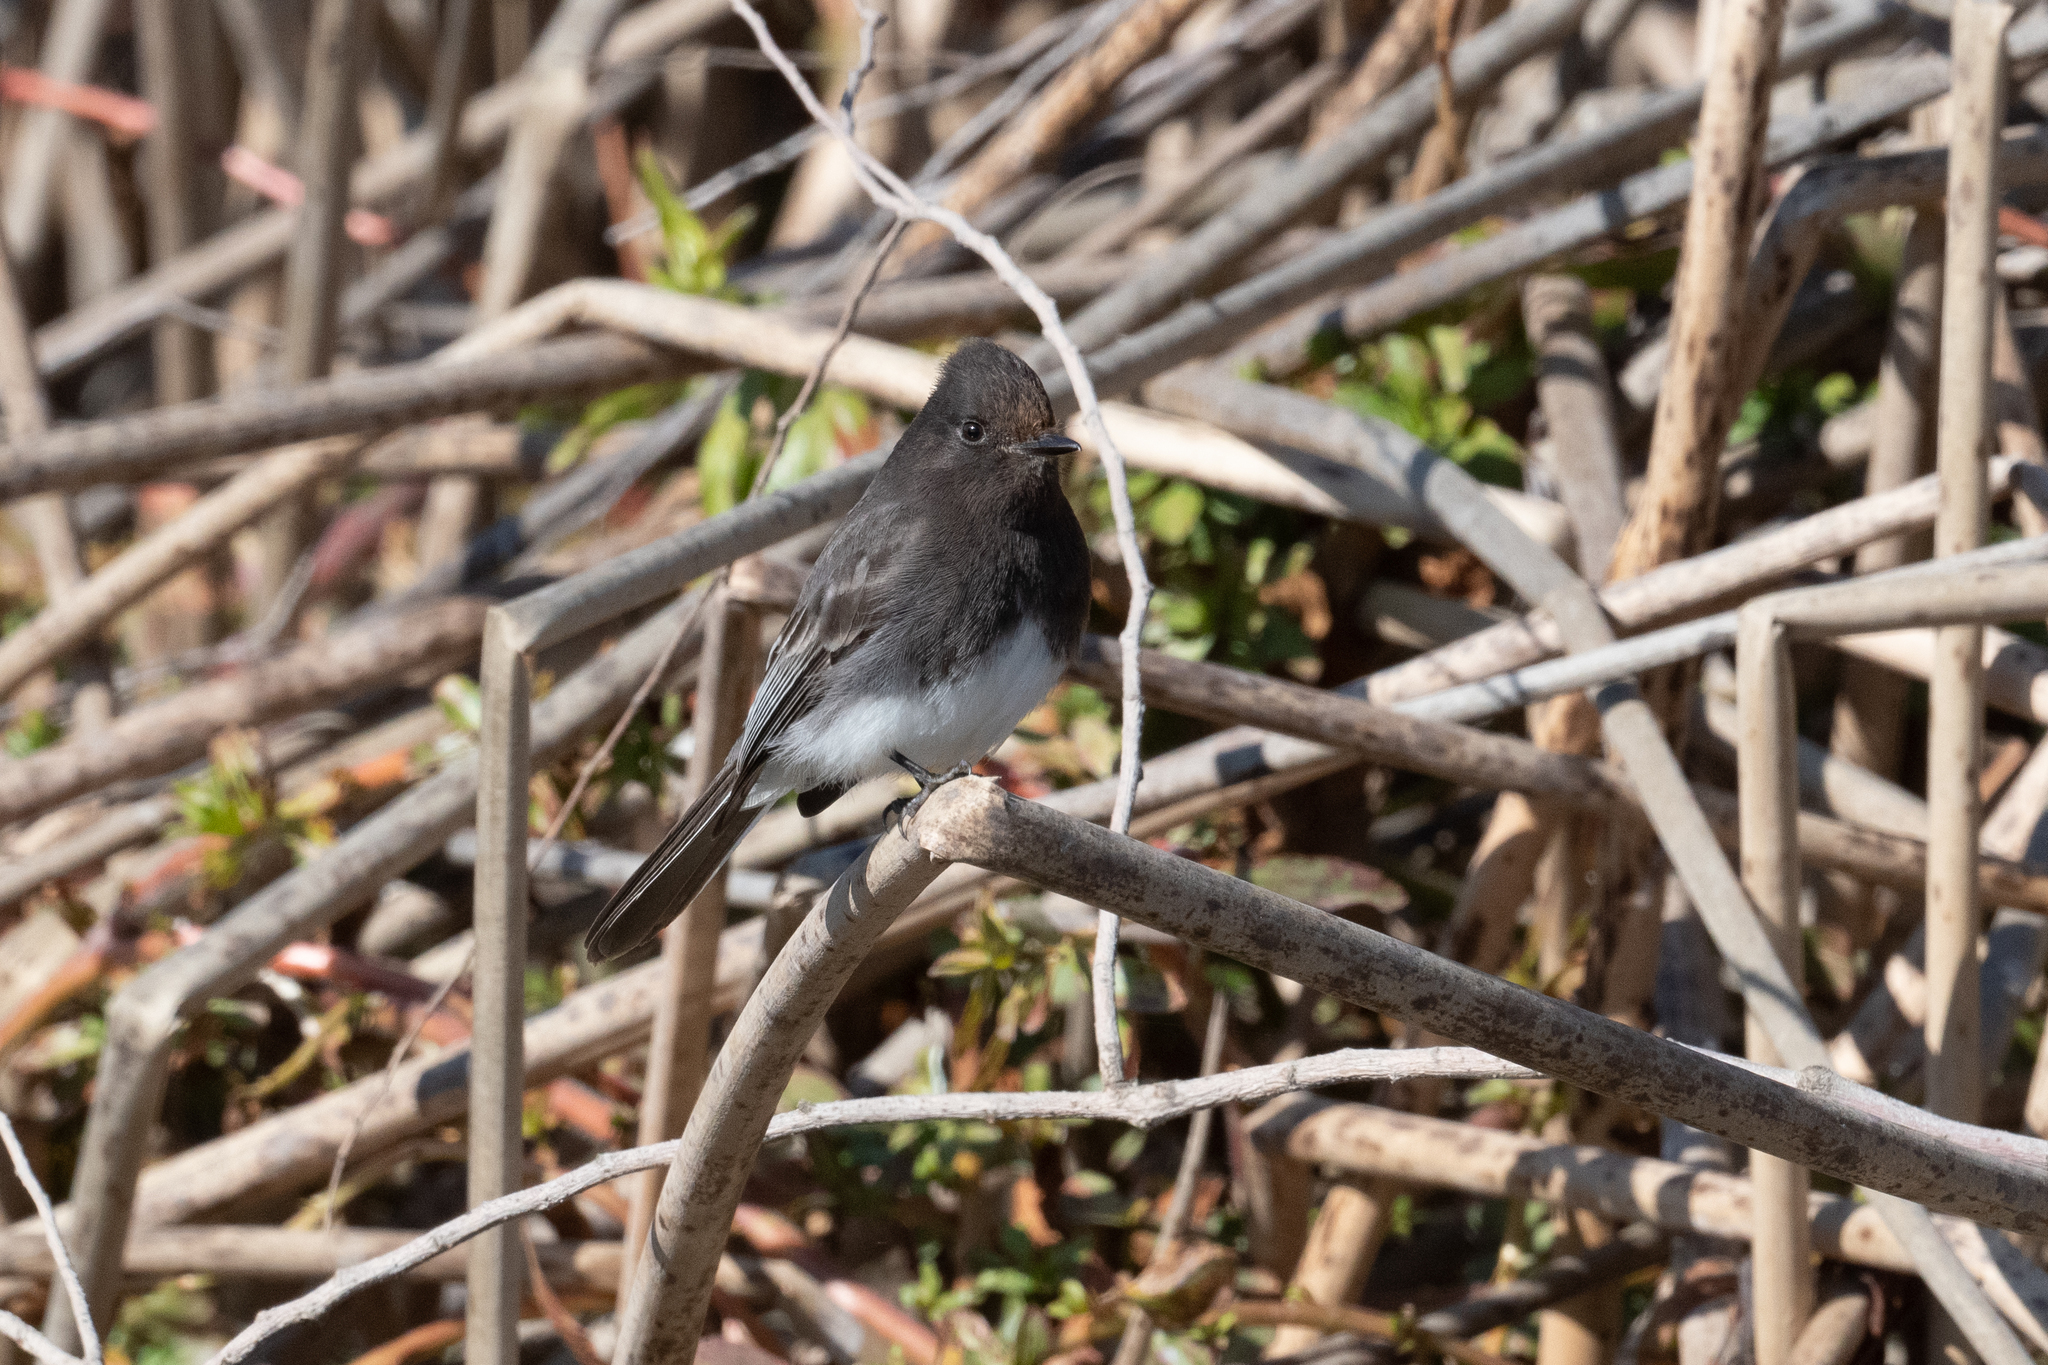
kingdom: Animalia
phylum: Chordata
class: Aves
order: Passeriformes
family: Tyrannidae
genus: Sayornis
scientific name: Sayornis nigricans
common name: Black phoebe
